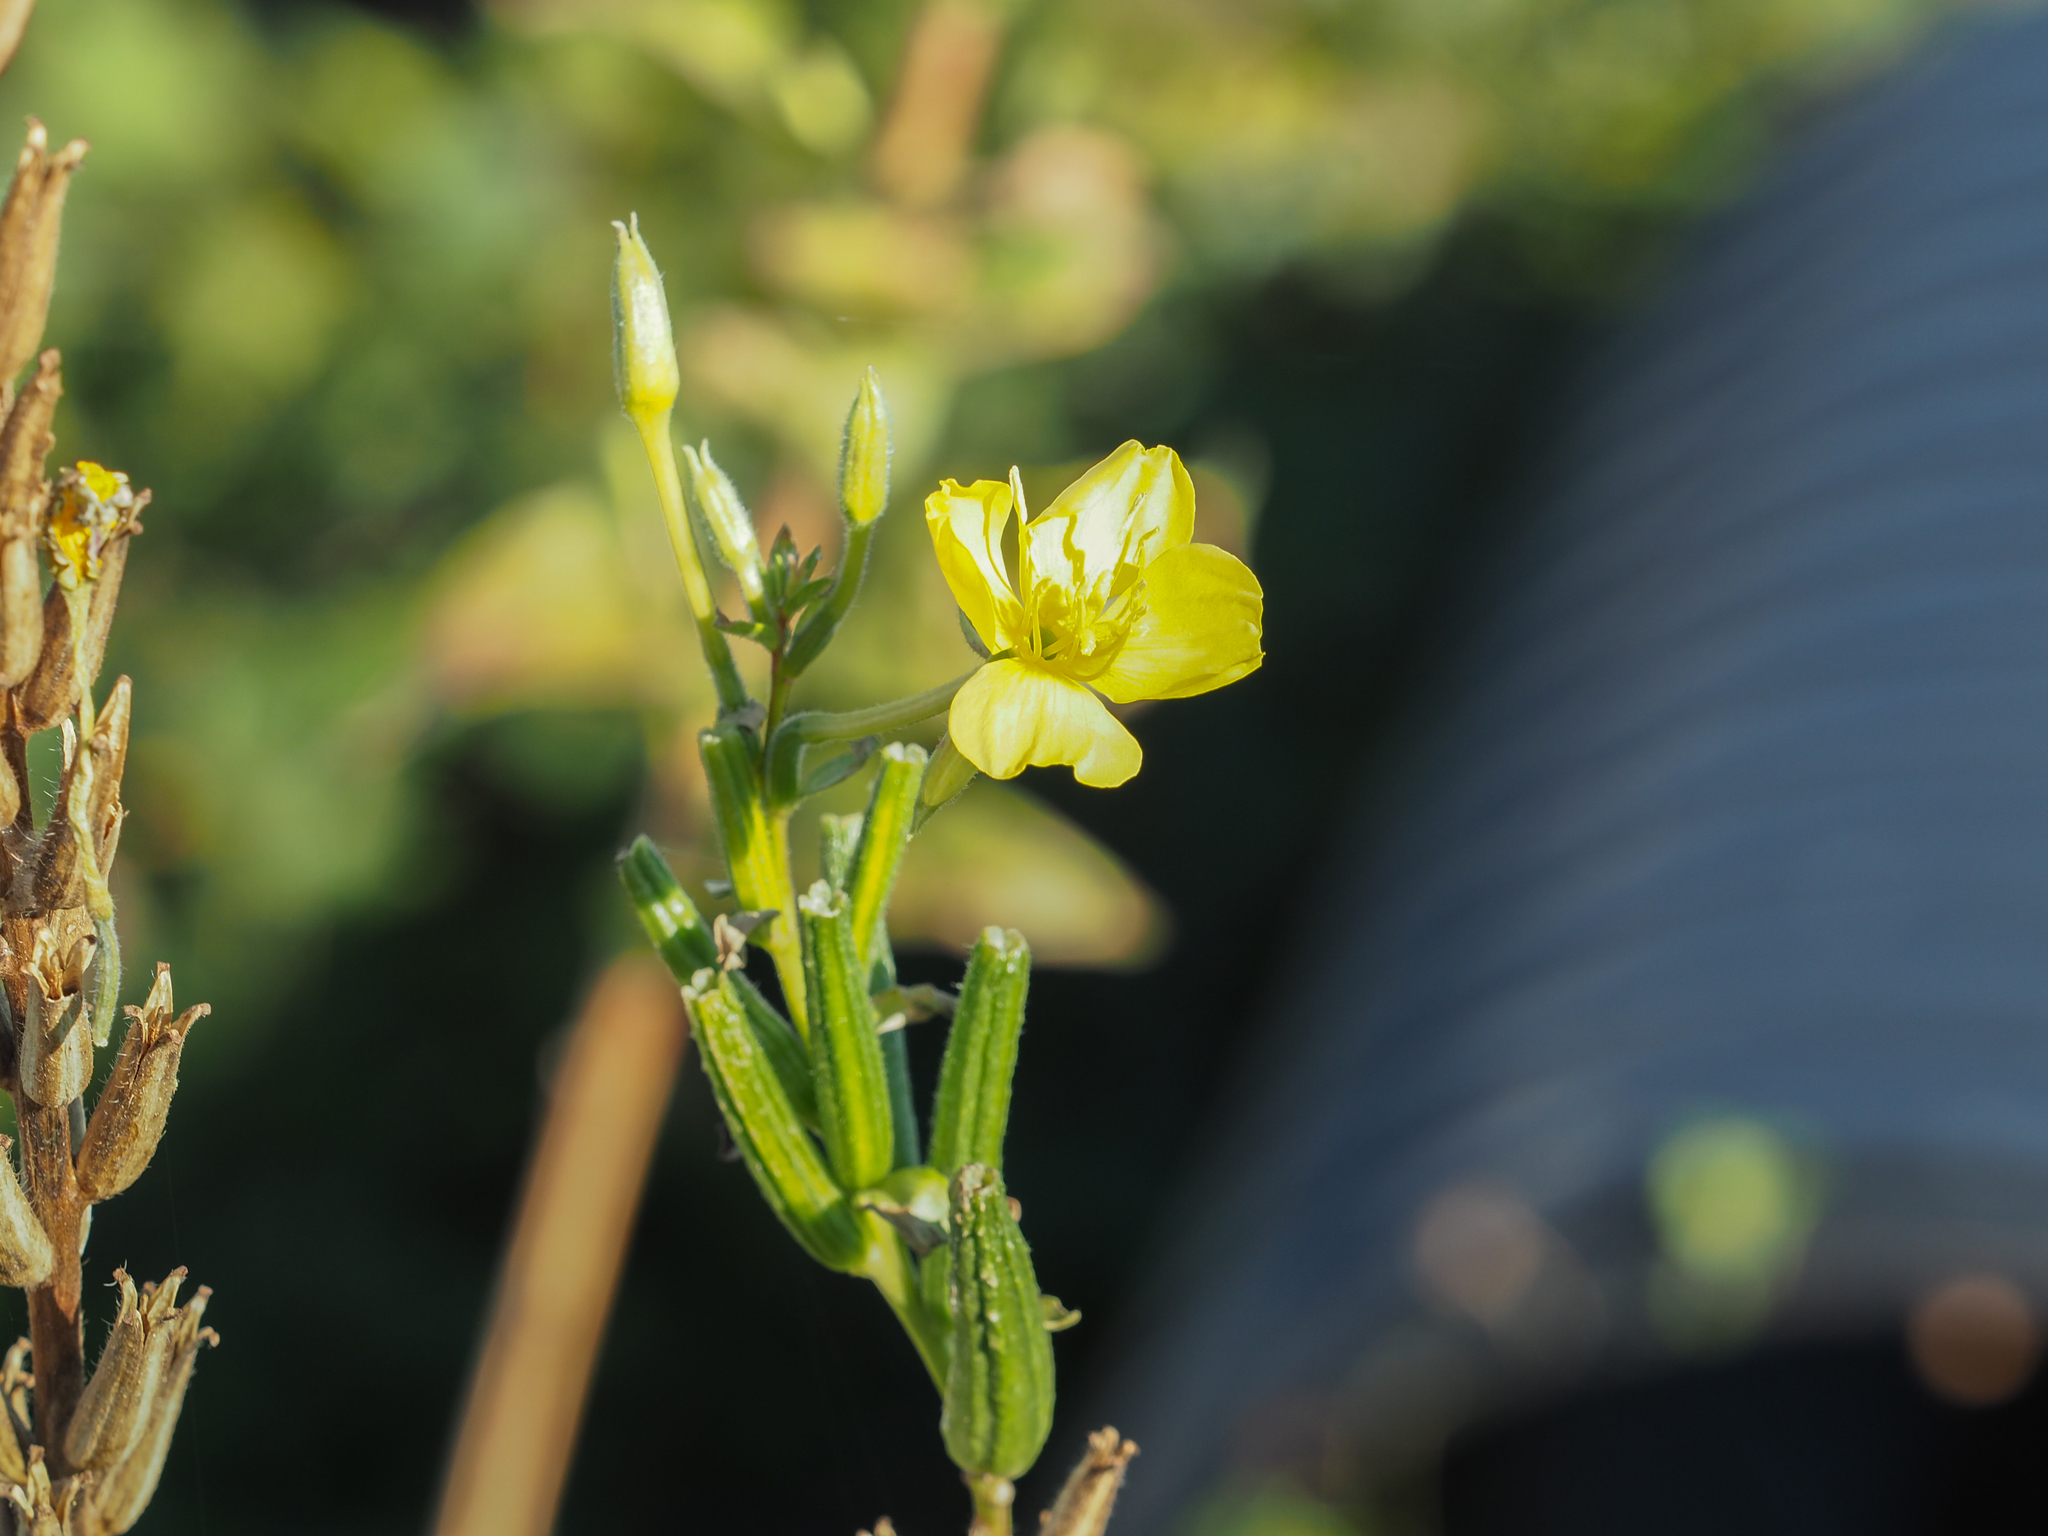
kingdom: Plantae
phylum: Tracheophyta
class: Magnoliopsida
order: Myrtales
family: Onagraceae
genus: Oenothera
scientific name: Oenothera biennis
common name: Common evening-primrose
